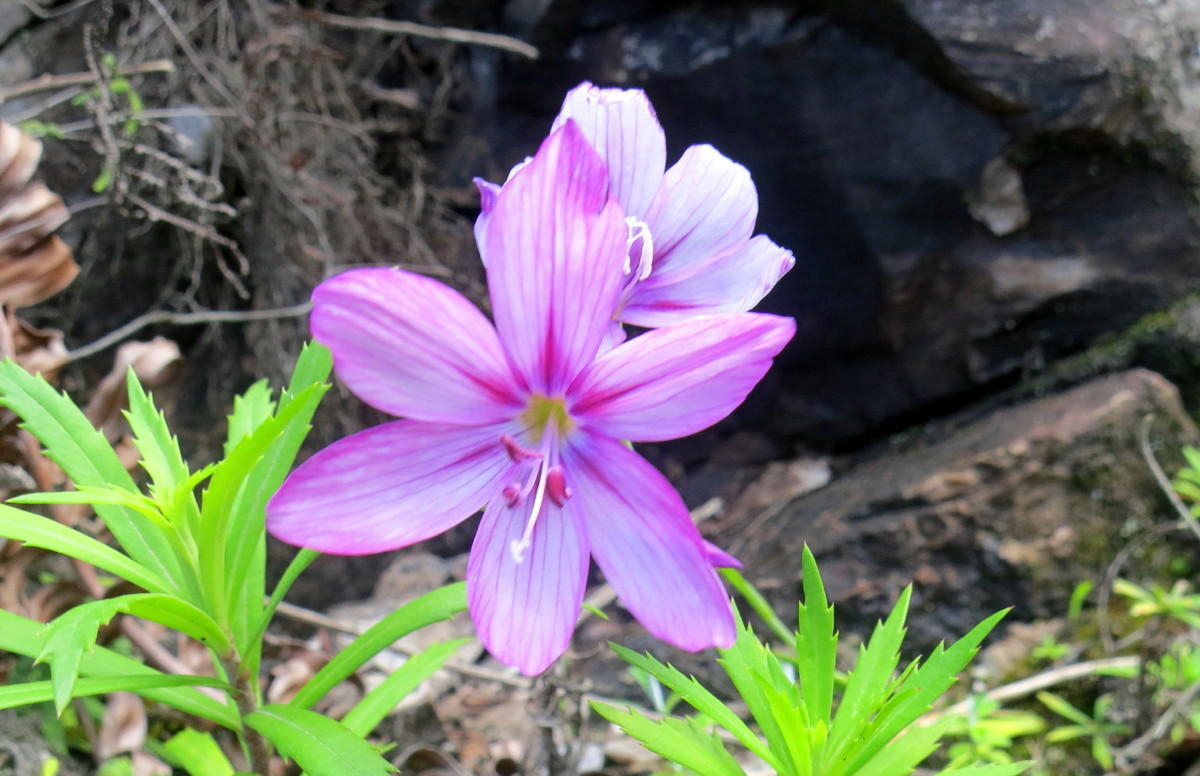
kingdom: Plantae
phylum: Tracheophyta
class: Liliopsida
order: Asparagales
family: Iridaceae
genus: Geissorhiza
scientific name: Geissorhiza outeniquensis
